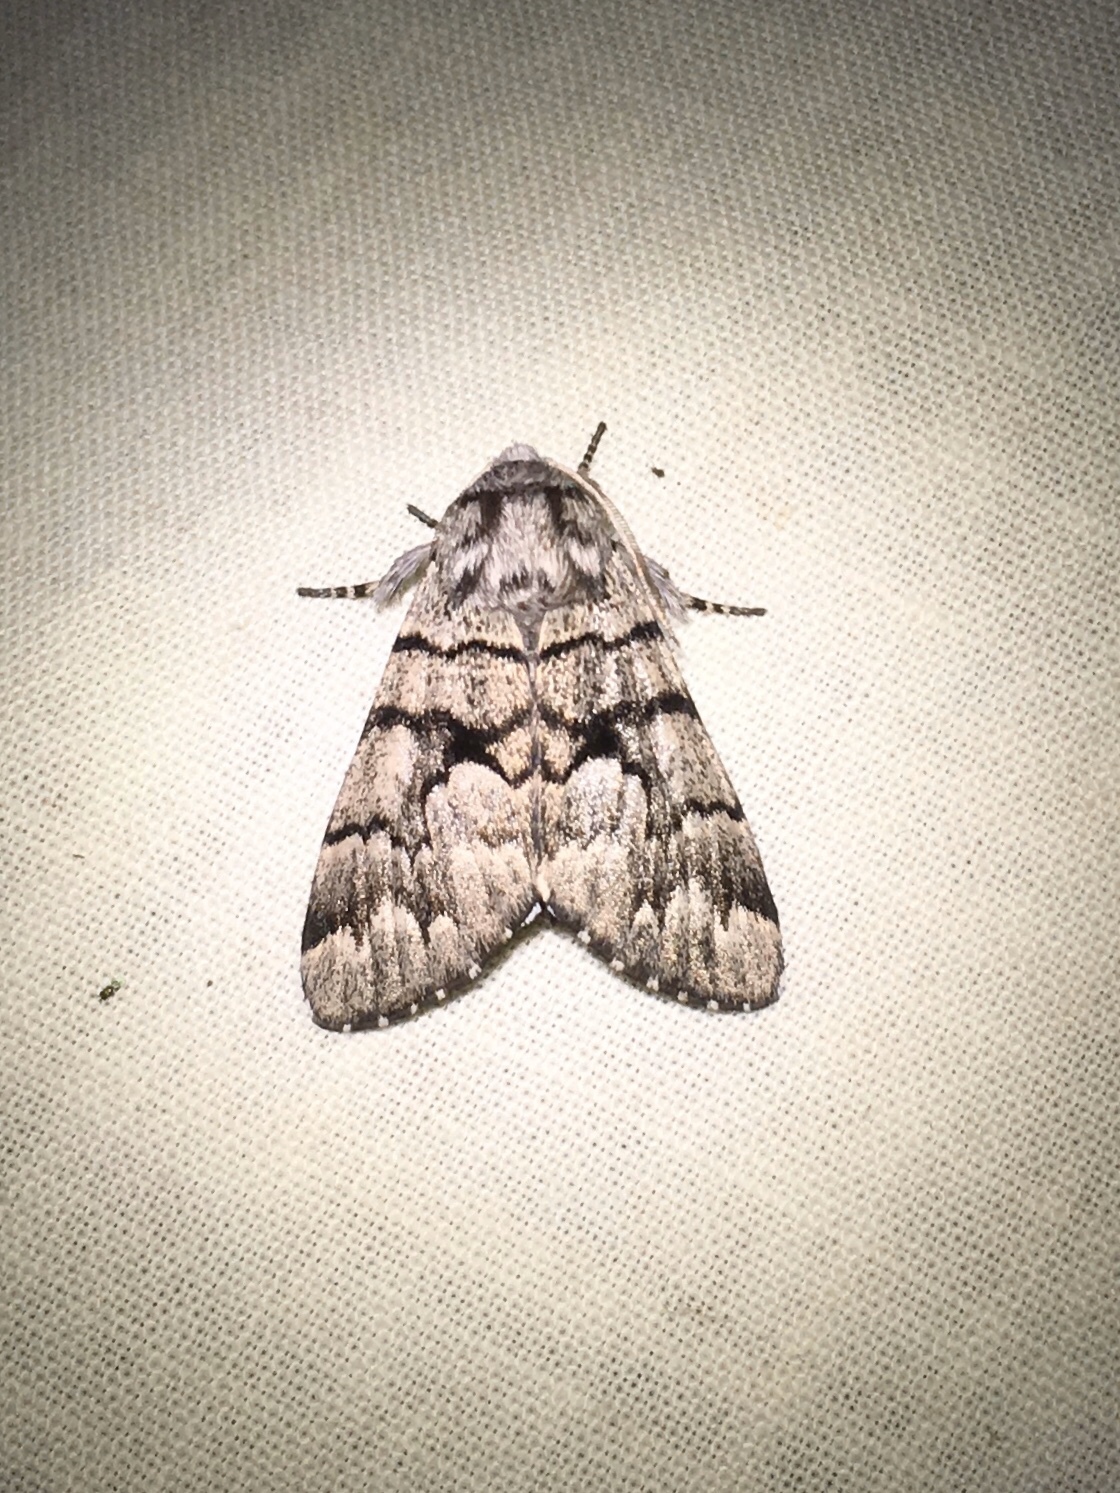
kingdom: Animalia
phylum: Arthropoda
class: Insecta
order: Lepidoptera
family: Noctuidae
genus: Panthea
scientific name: Panthea furcilla
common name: Eastern panthea moth
